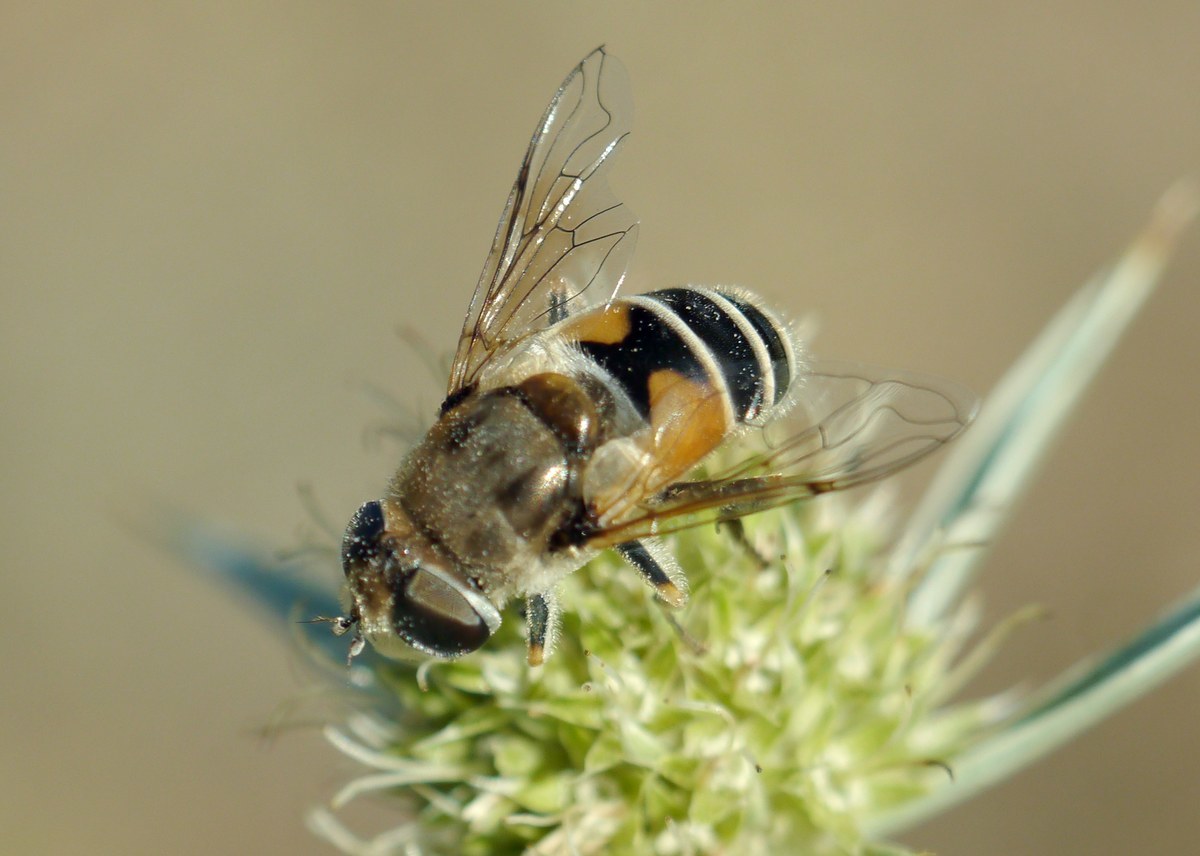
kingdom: Animalia
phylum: Arthropoda
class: Insecta
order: Diptera
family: Syrphidae
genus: Eristalis
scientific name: Eristalis arbustorum
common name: Hover fly
